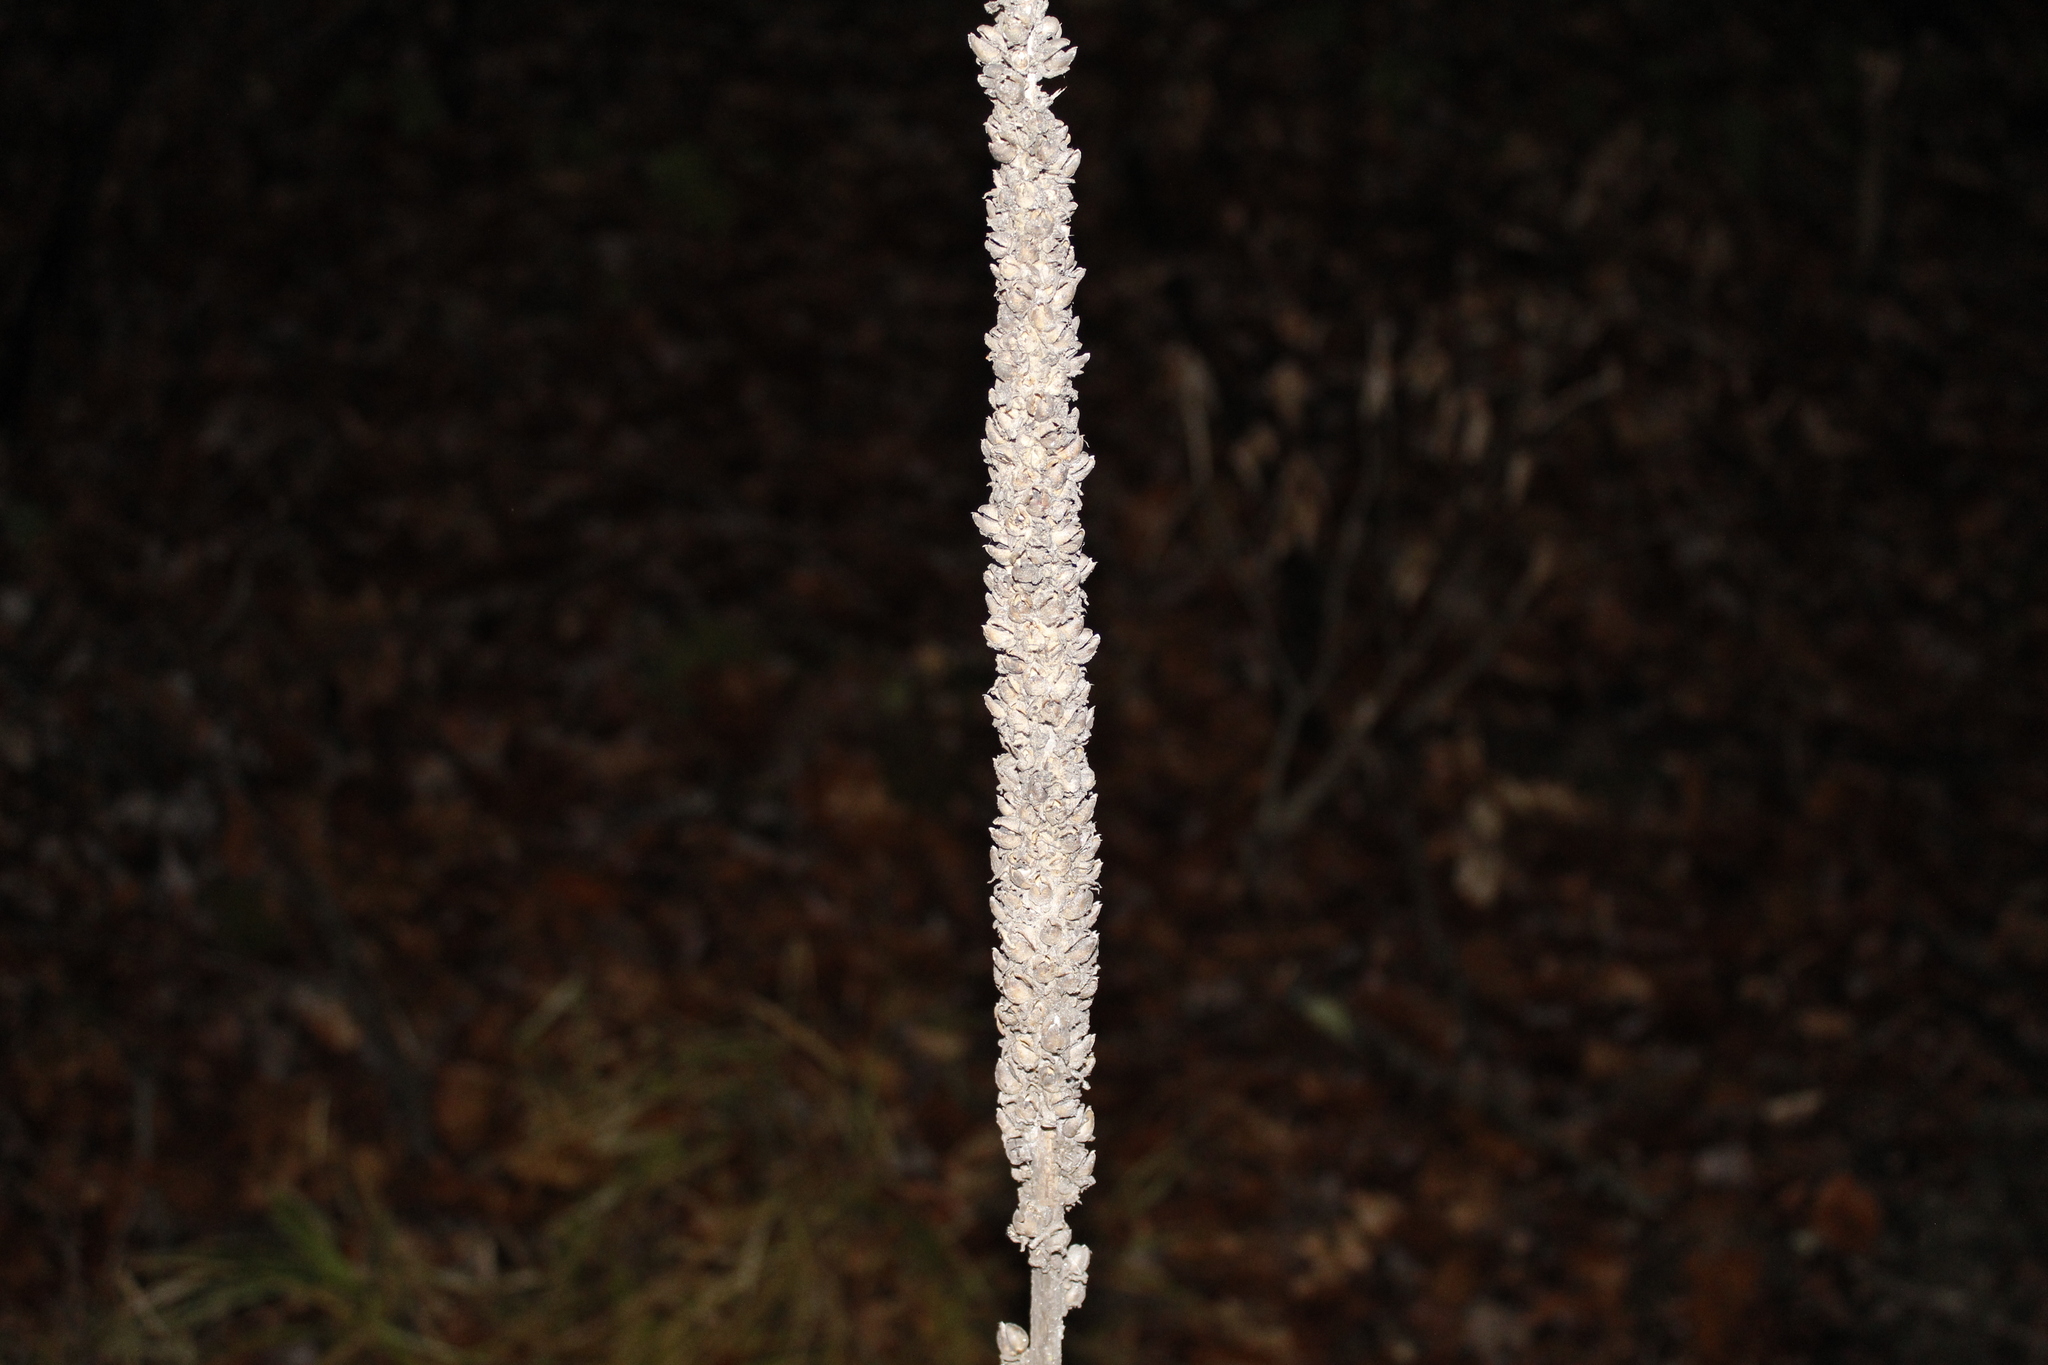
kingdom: Plantae
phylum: Tracheophyta
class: Magnoliopsida
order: Lamiales
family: Scrophulariaceae
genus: Verbascum
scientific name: Verbascum thapsus
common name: Common mullein
